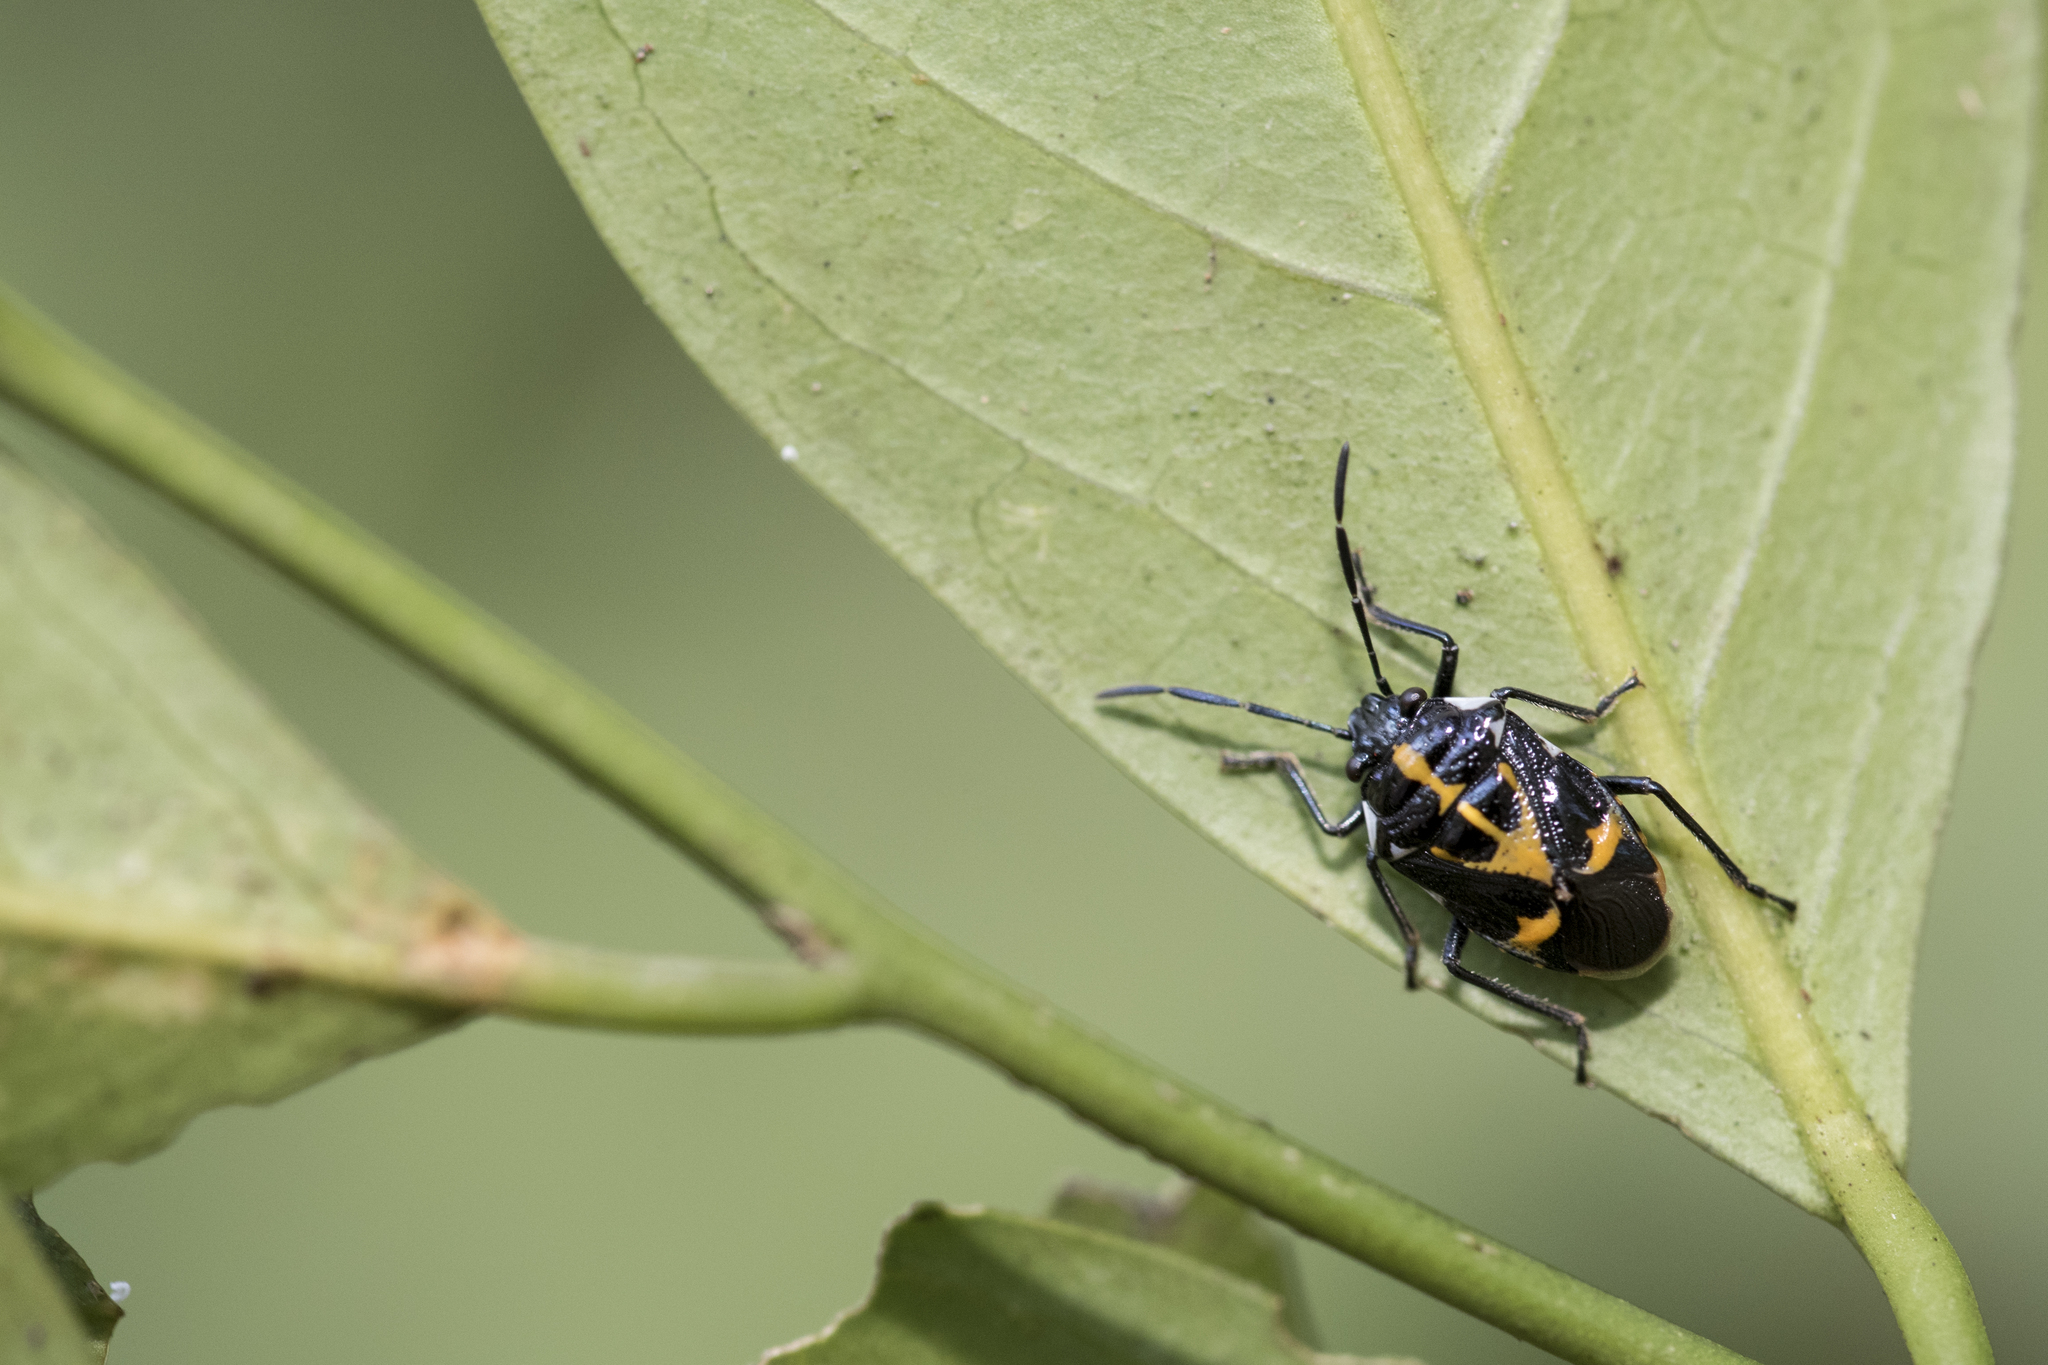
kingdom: Animalia
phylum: Arthropoda
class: Insecta
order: Hemiptera
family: Pentatomidae
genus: Stenozygum
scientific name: Stenozygum speciosum
